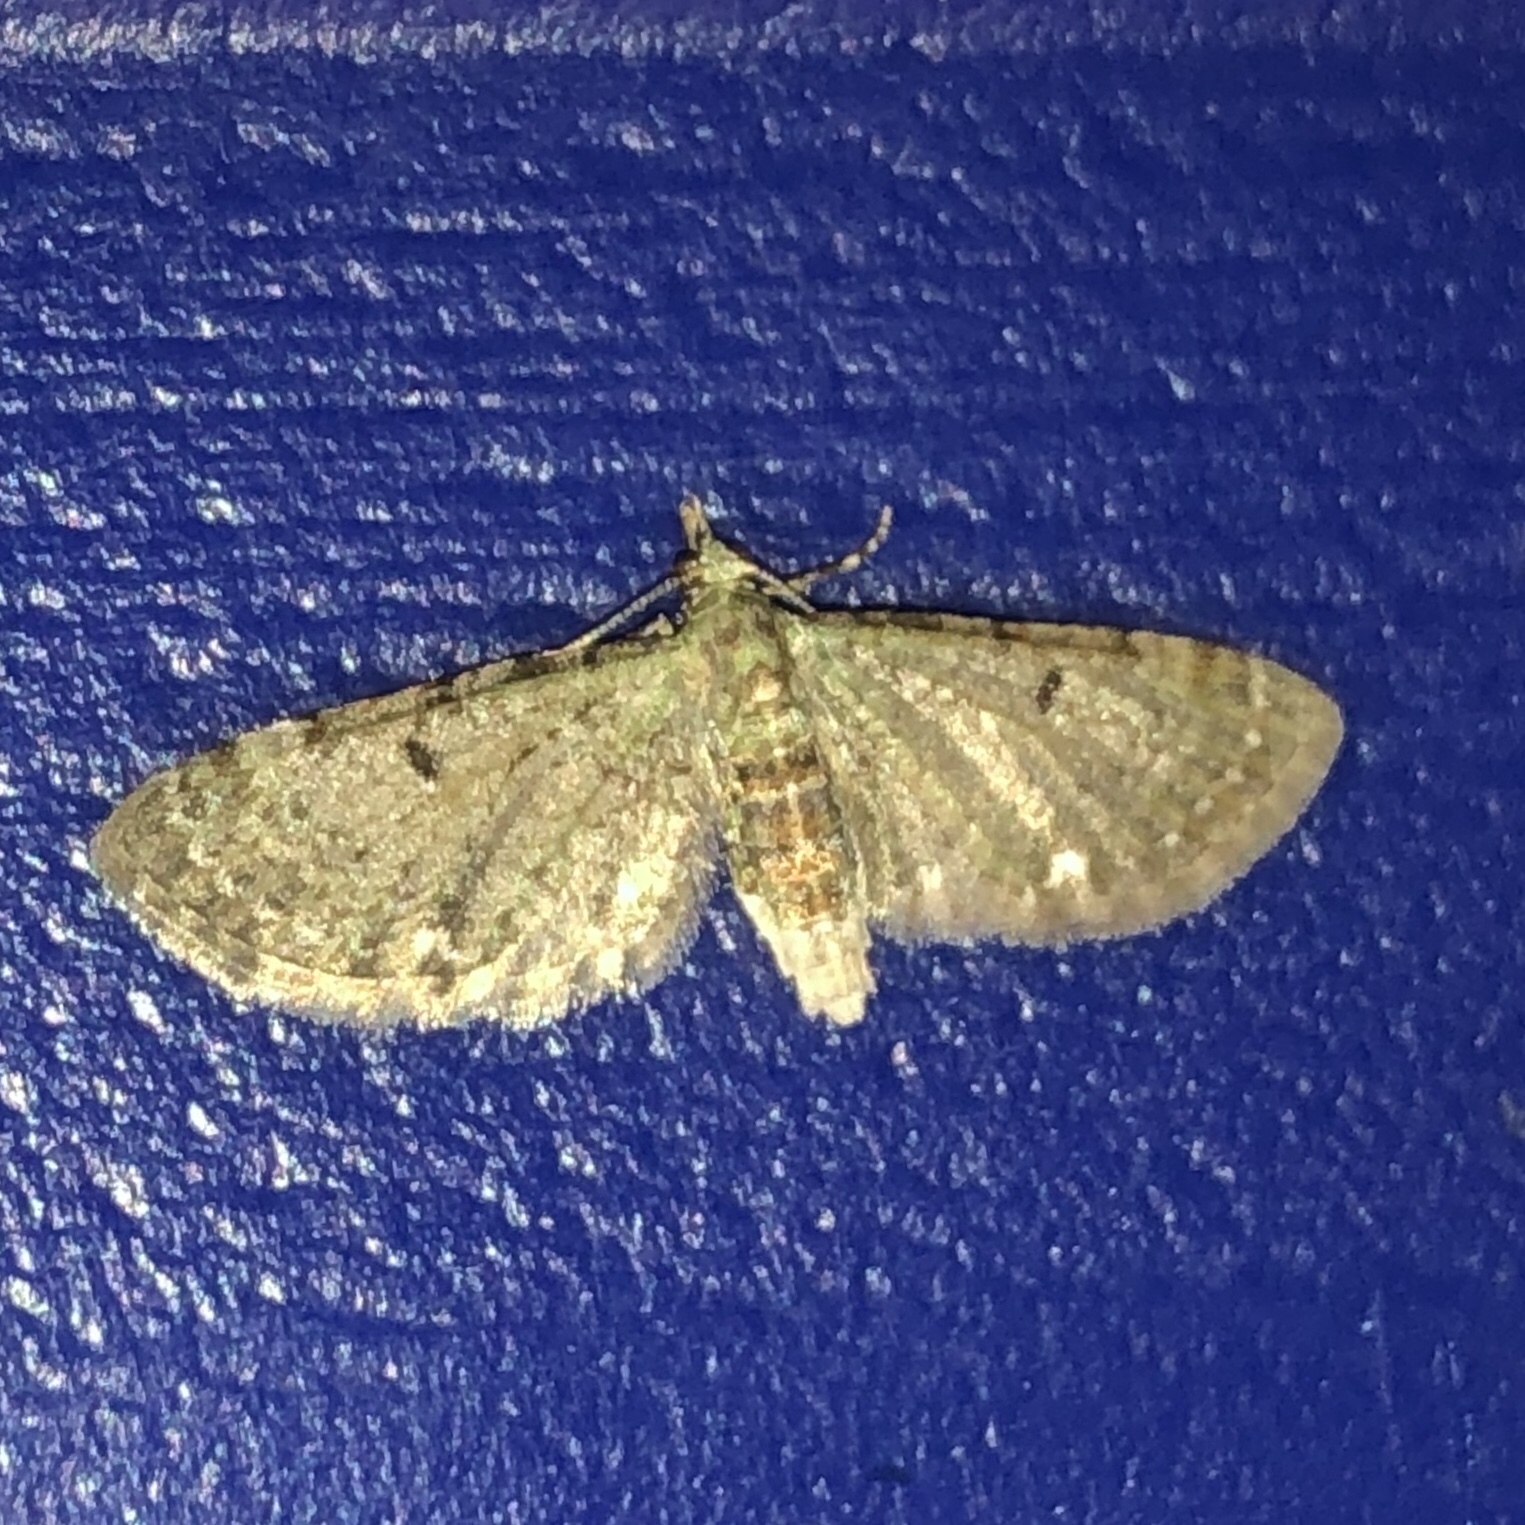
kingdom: Animalia
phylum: Arthropoda
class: Insecta
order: Lepidoptera
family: Geometridae
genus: Pasiphila
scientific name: Pasiphila rectangulata
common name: Green pug
